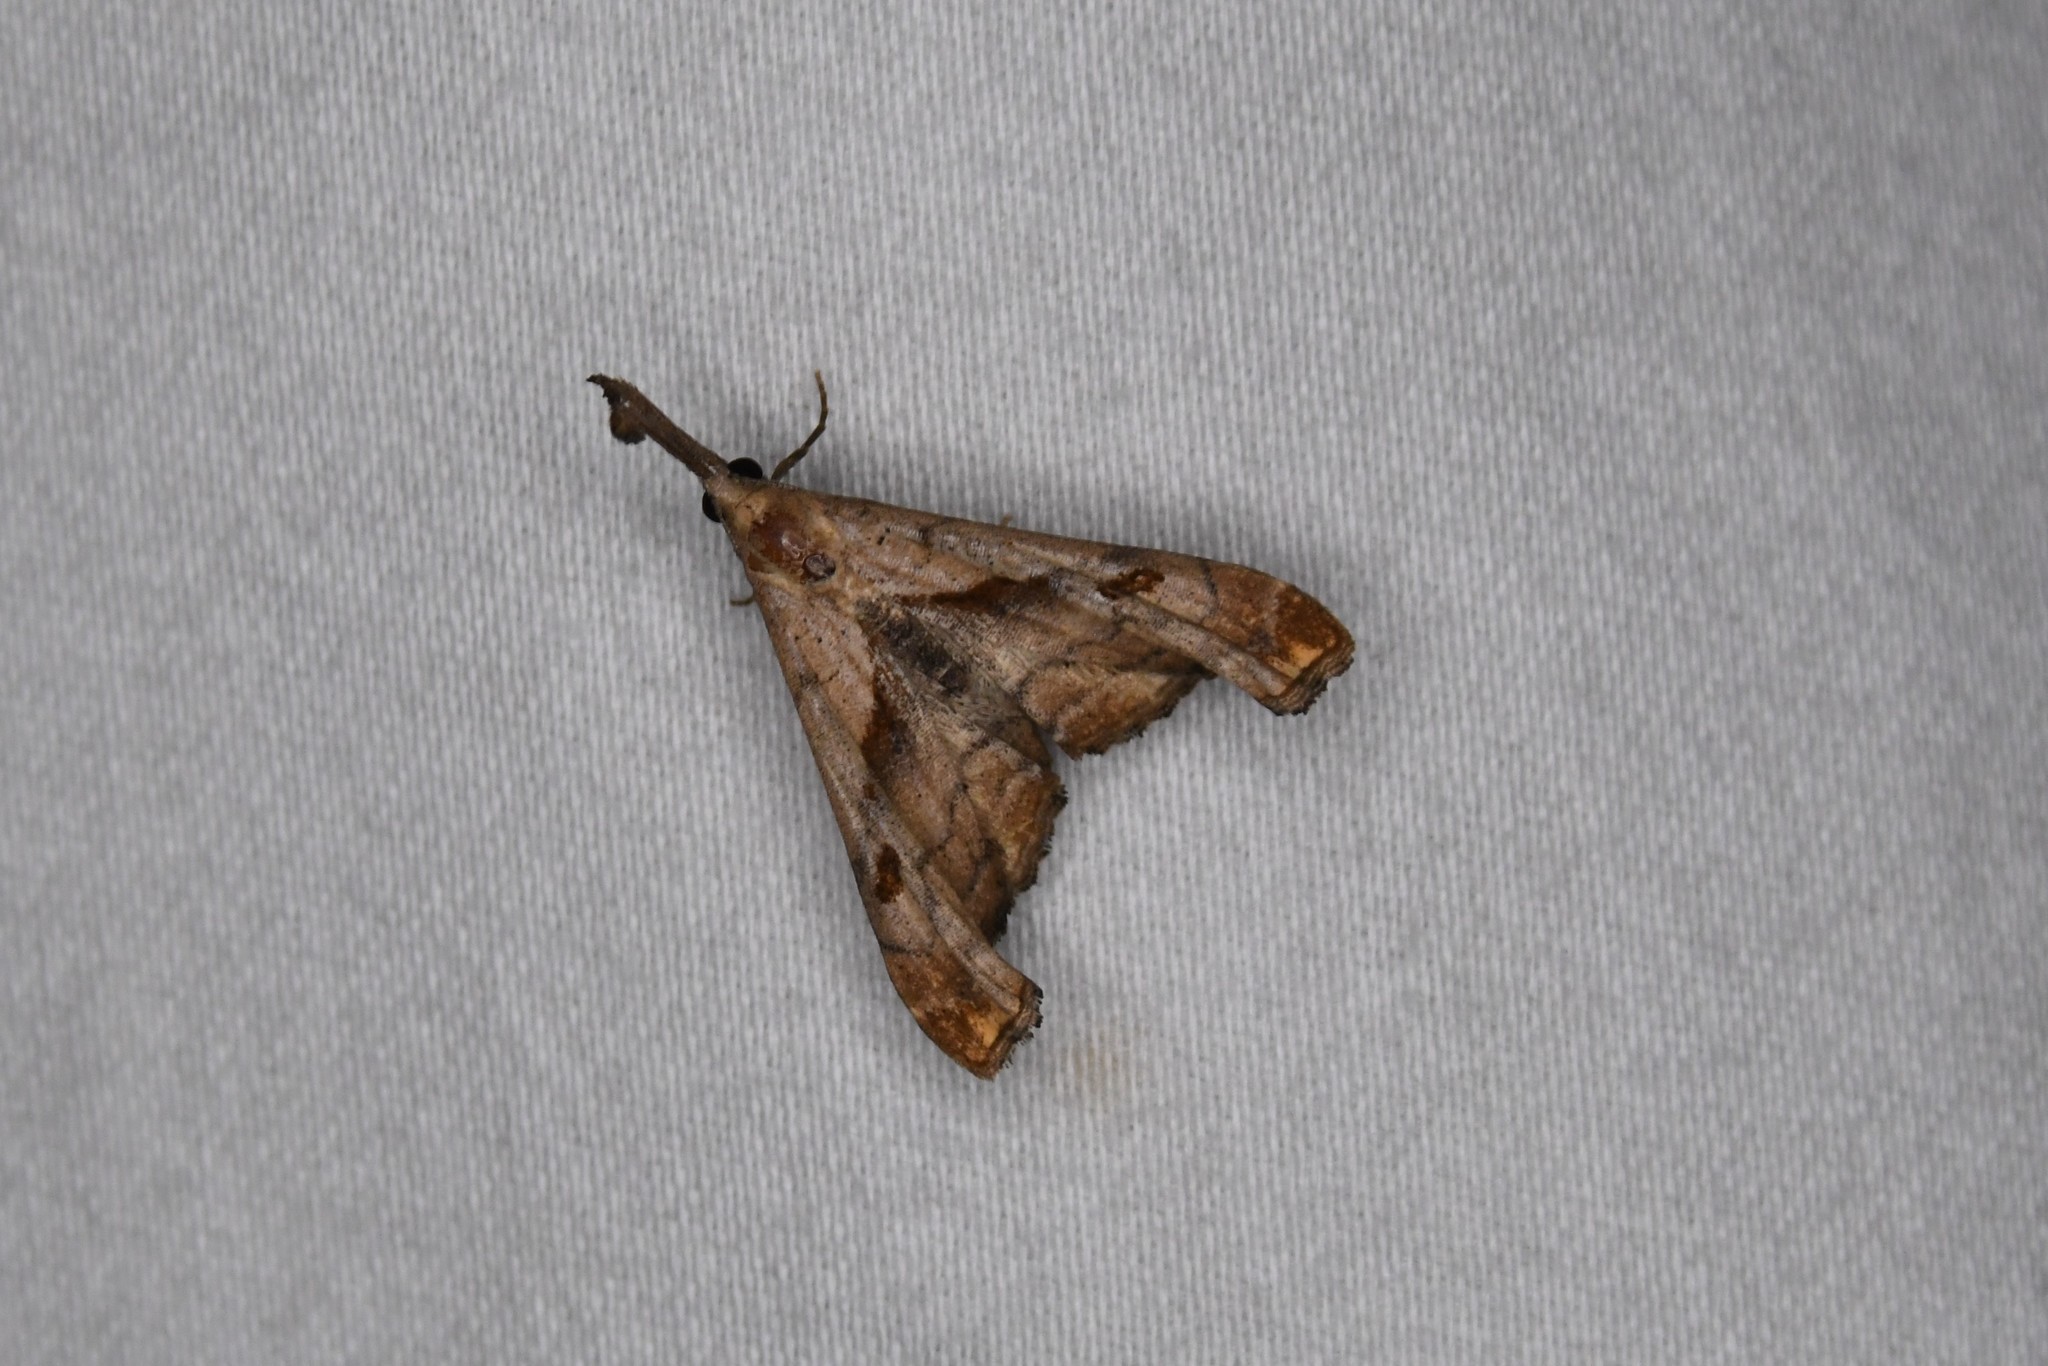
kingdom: Animalia
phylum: Arthropoda
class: Insecta
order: Lepidoptera
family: Erebidae
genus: Palthis
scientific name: Palthis angulalis
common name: Dark-spotted palthis moth
